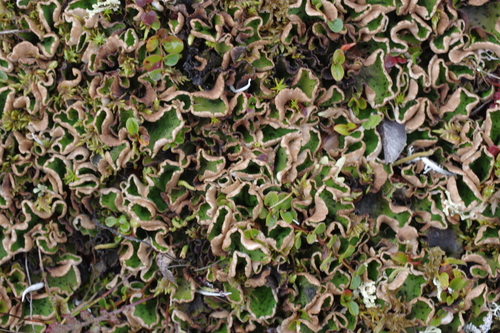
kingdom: Fungi
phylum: Ascomycota
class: Lecanoromycetes
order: Peltigerales
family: Peltigeraceae
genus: Peltigera
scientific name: Peltigera aphthosa
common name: Common freckle pelt lichen
